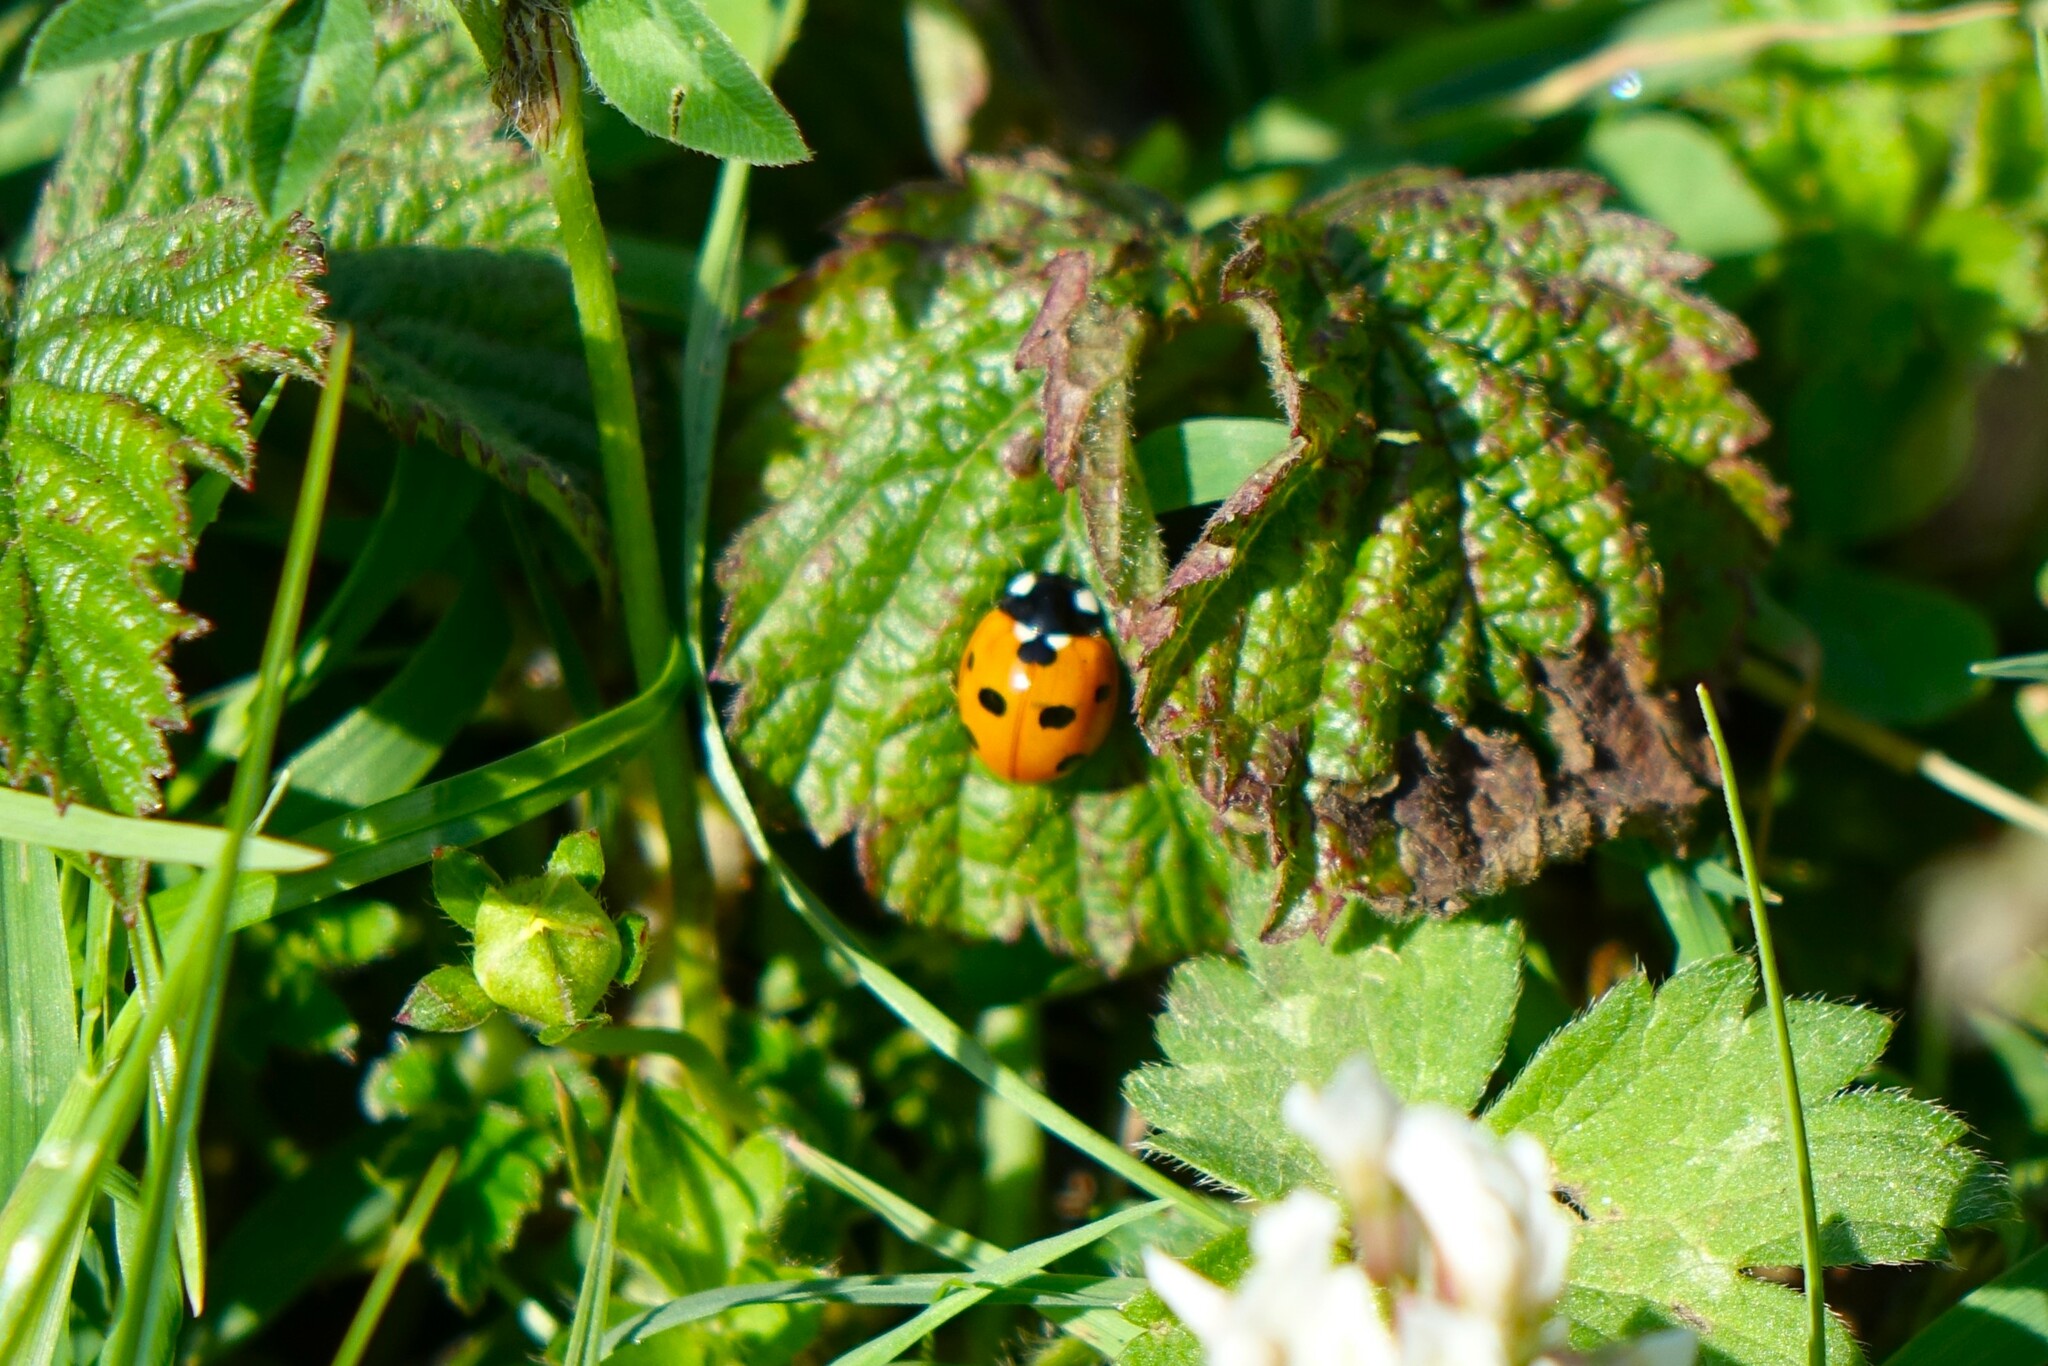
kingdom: Animalia
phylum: Arthropoda
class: Insecta
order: Coleoptera
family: Coccinellidae
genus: Coccinella
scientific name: Coccinella septempunctata
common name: Sevenspotted lady beetle
